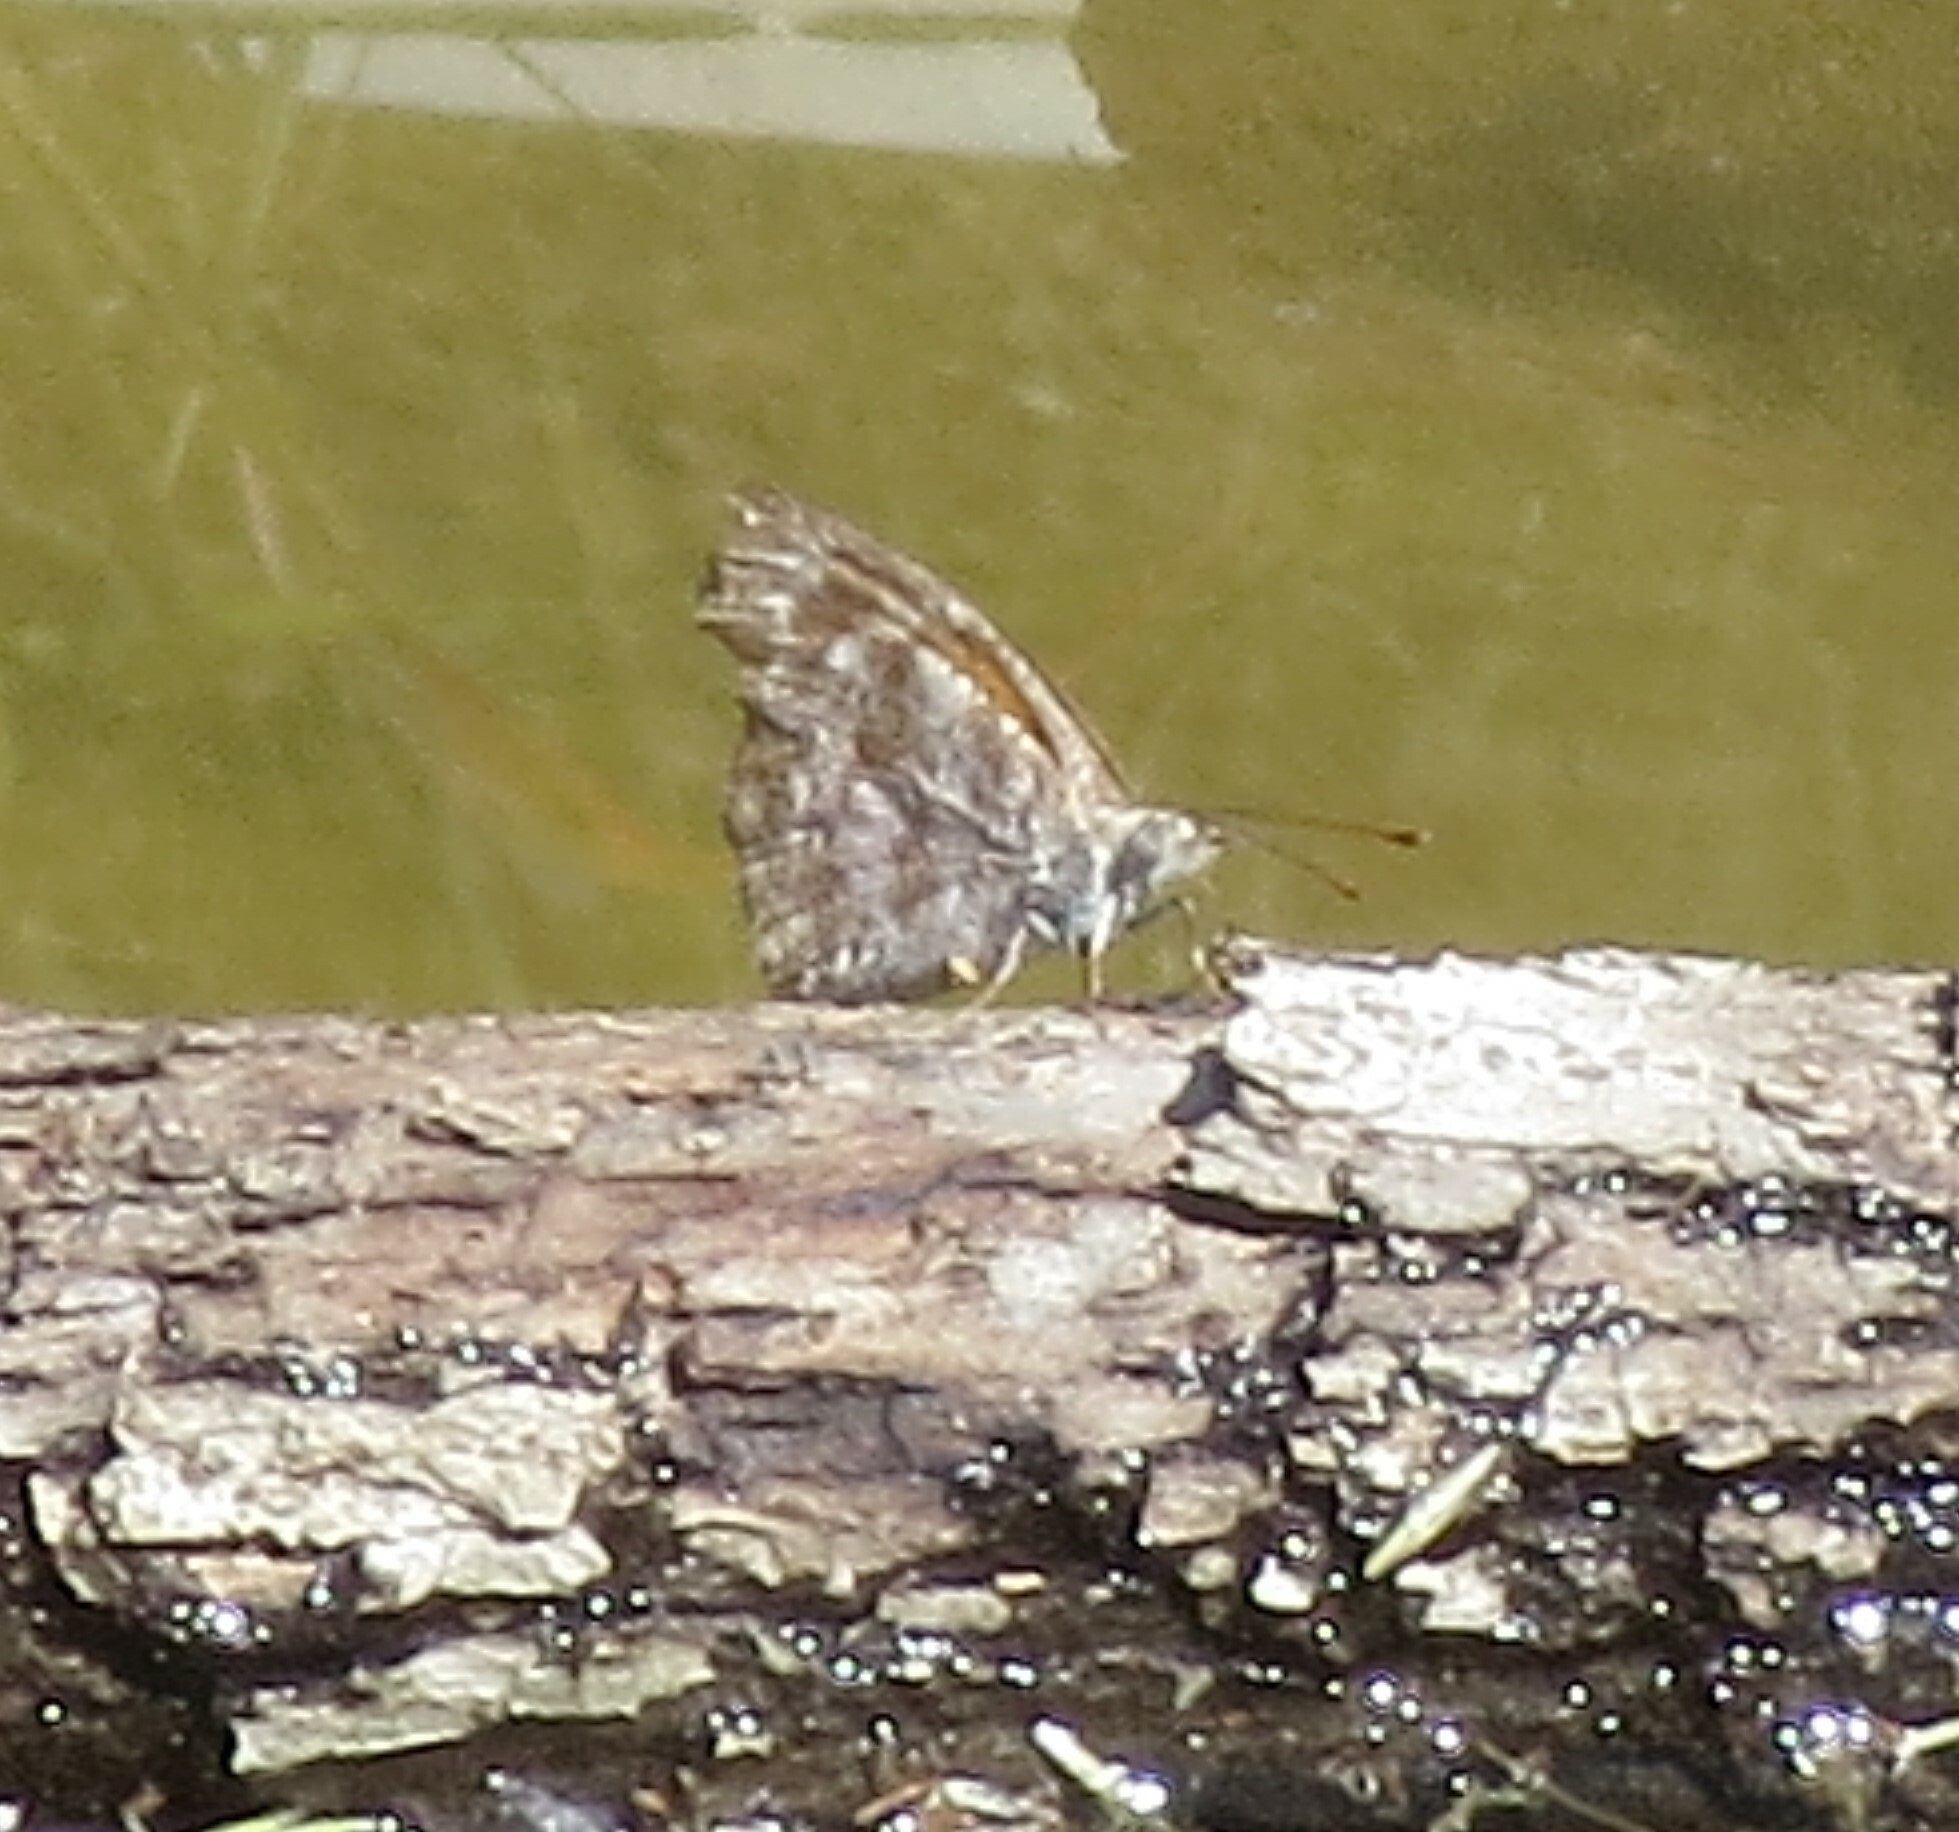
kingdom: Animalia
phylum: Arthropoda
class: Insecta
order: Lepidoptera
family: Nymphalidae
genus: Libytheana
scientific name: Libytheana carinenta
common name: American snout
